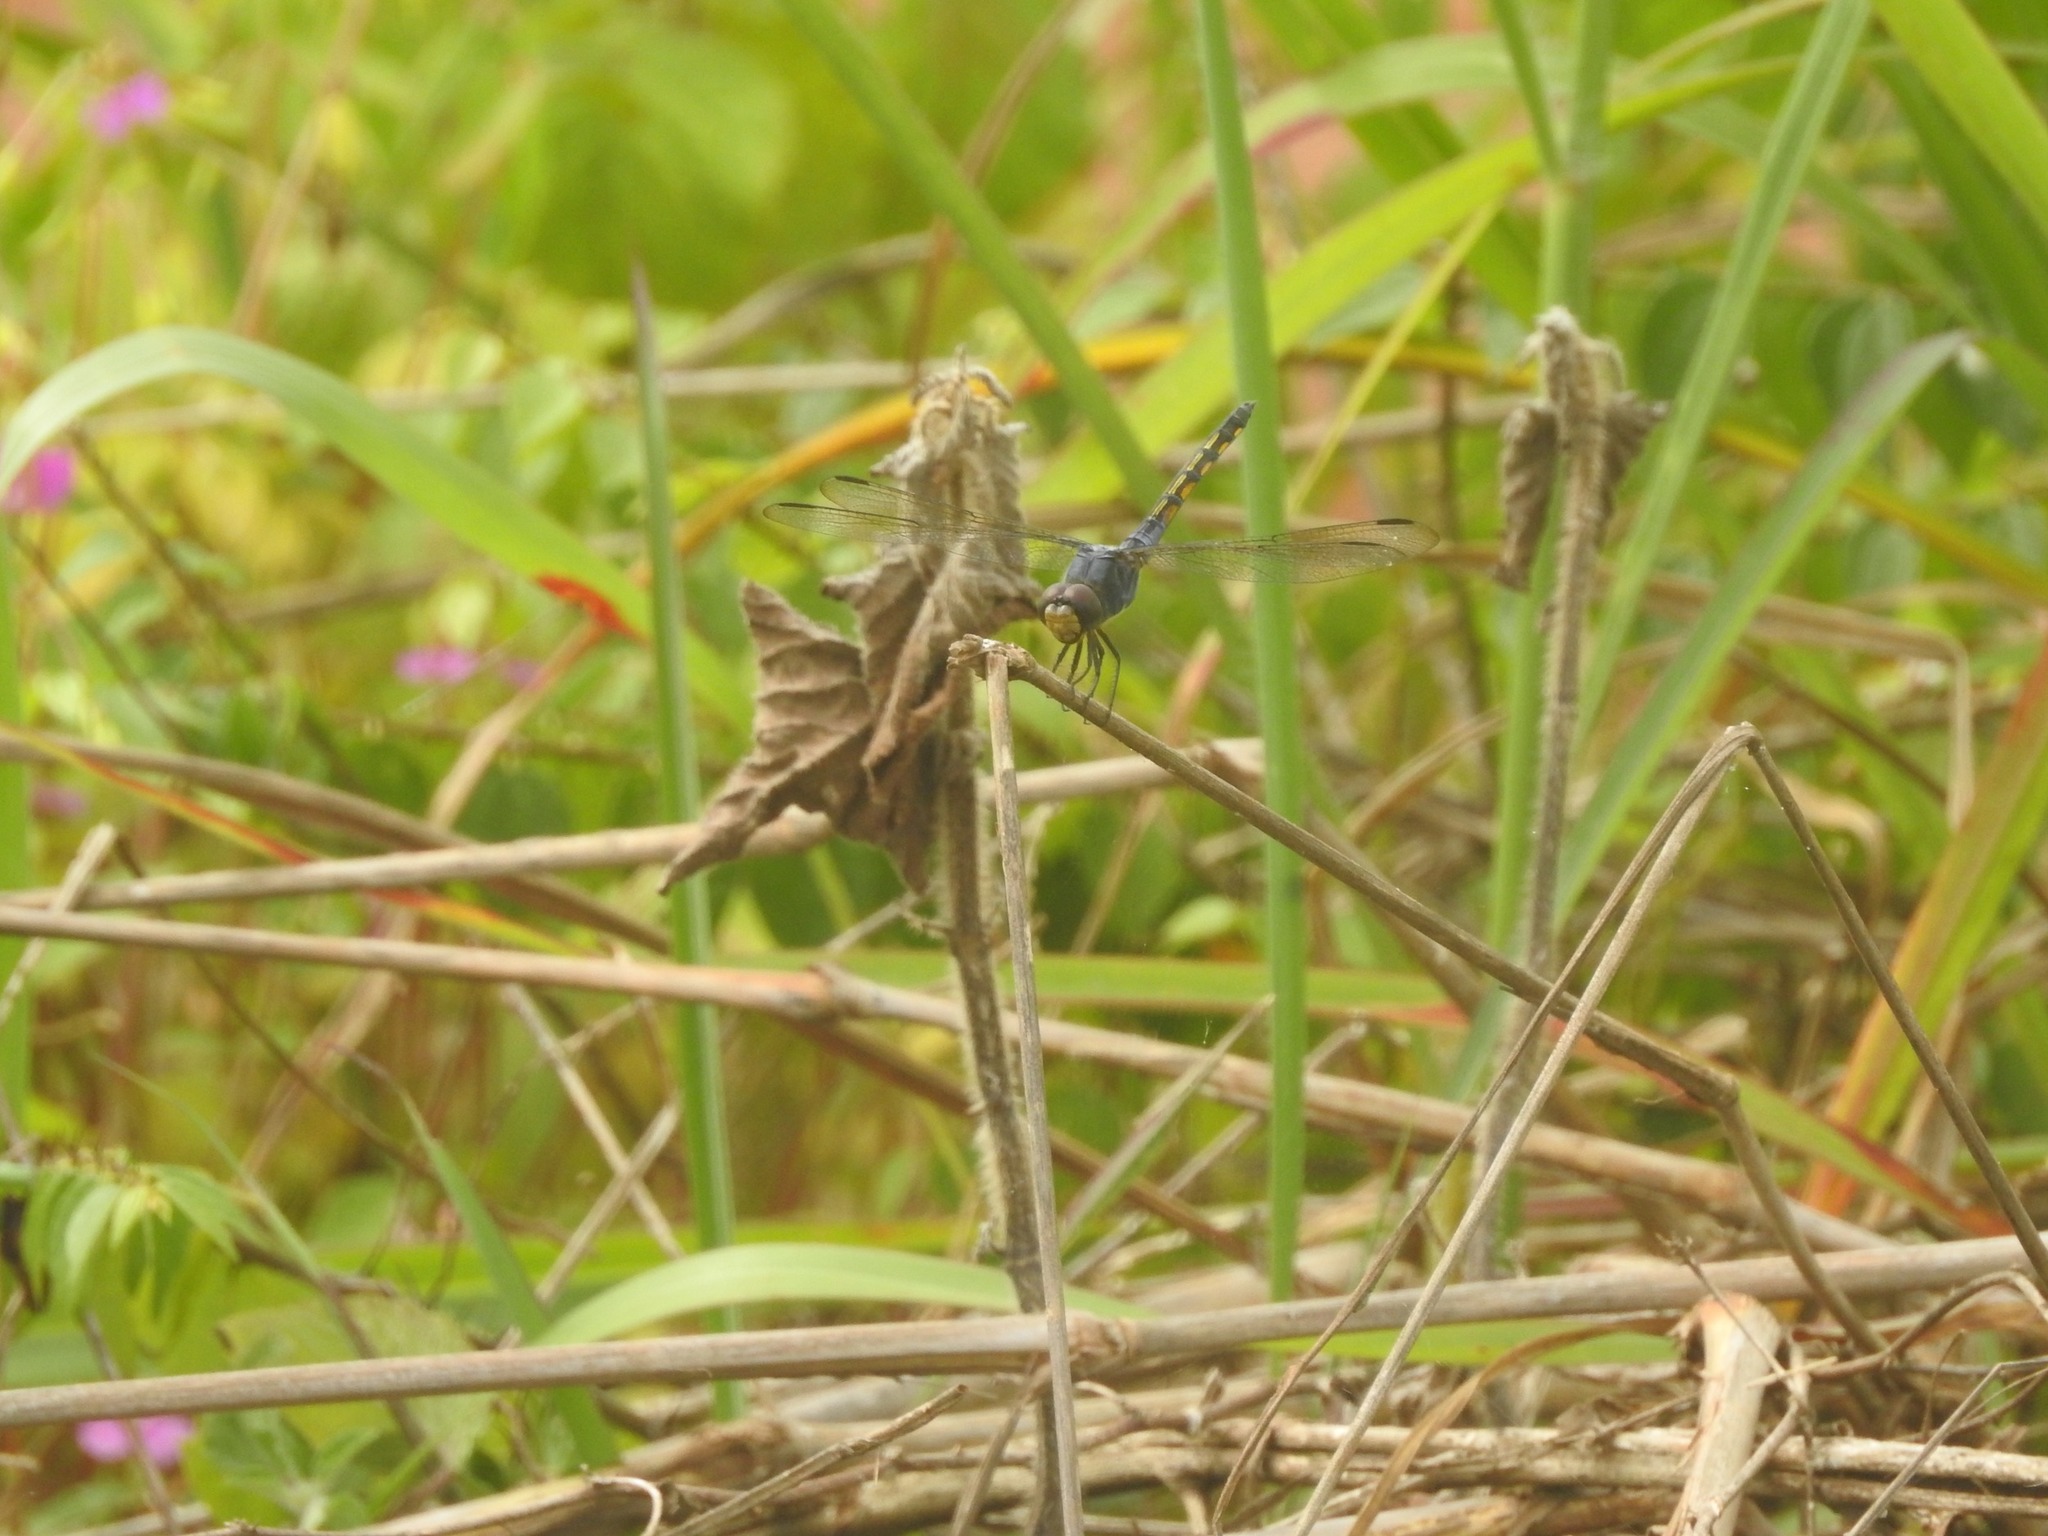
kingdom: Animalia
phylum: Arthropoda
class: Insecta
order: Odonata
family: Libellulidae
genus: Potamarcha
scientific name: Potamarcha congener
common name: Blue chaser
